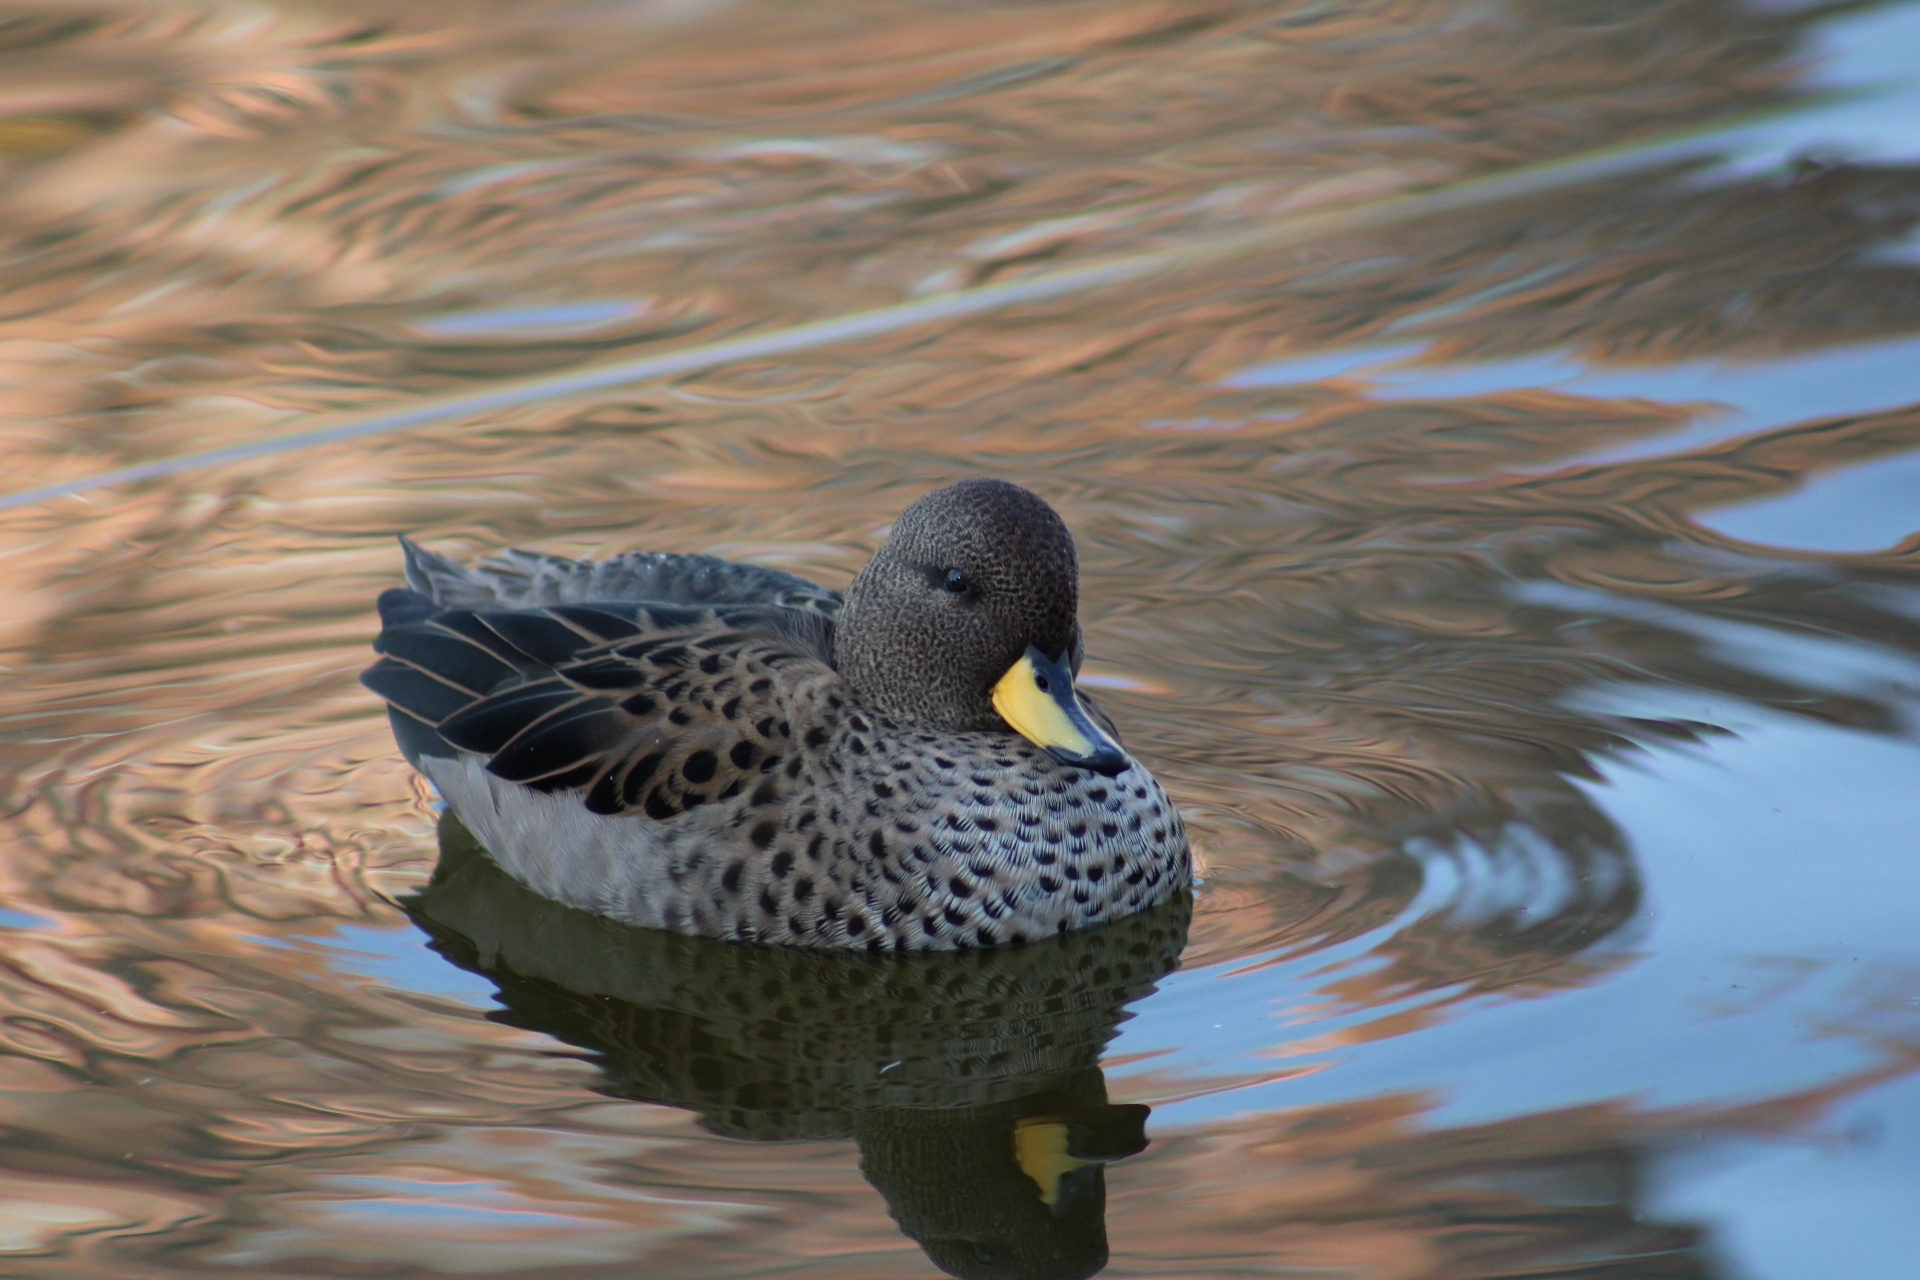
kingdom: Animalia
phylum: Chordata
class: Aves
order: Anseriformes
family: Anatidae
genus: Anas
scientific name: Anas flavirostris
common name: Yellow-billed teal
